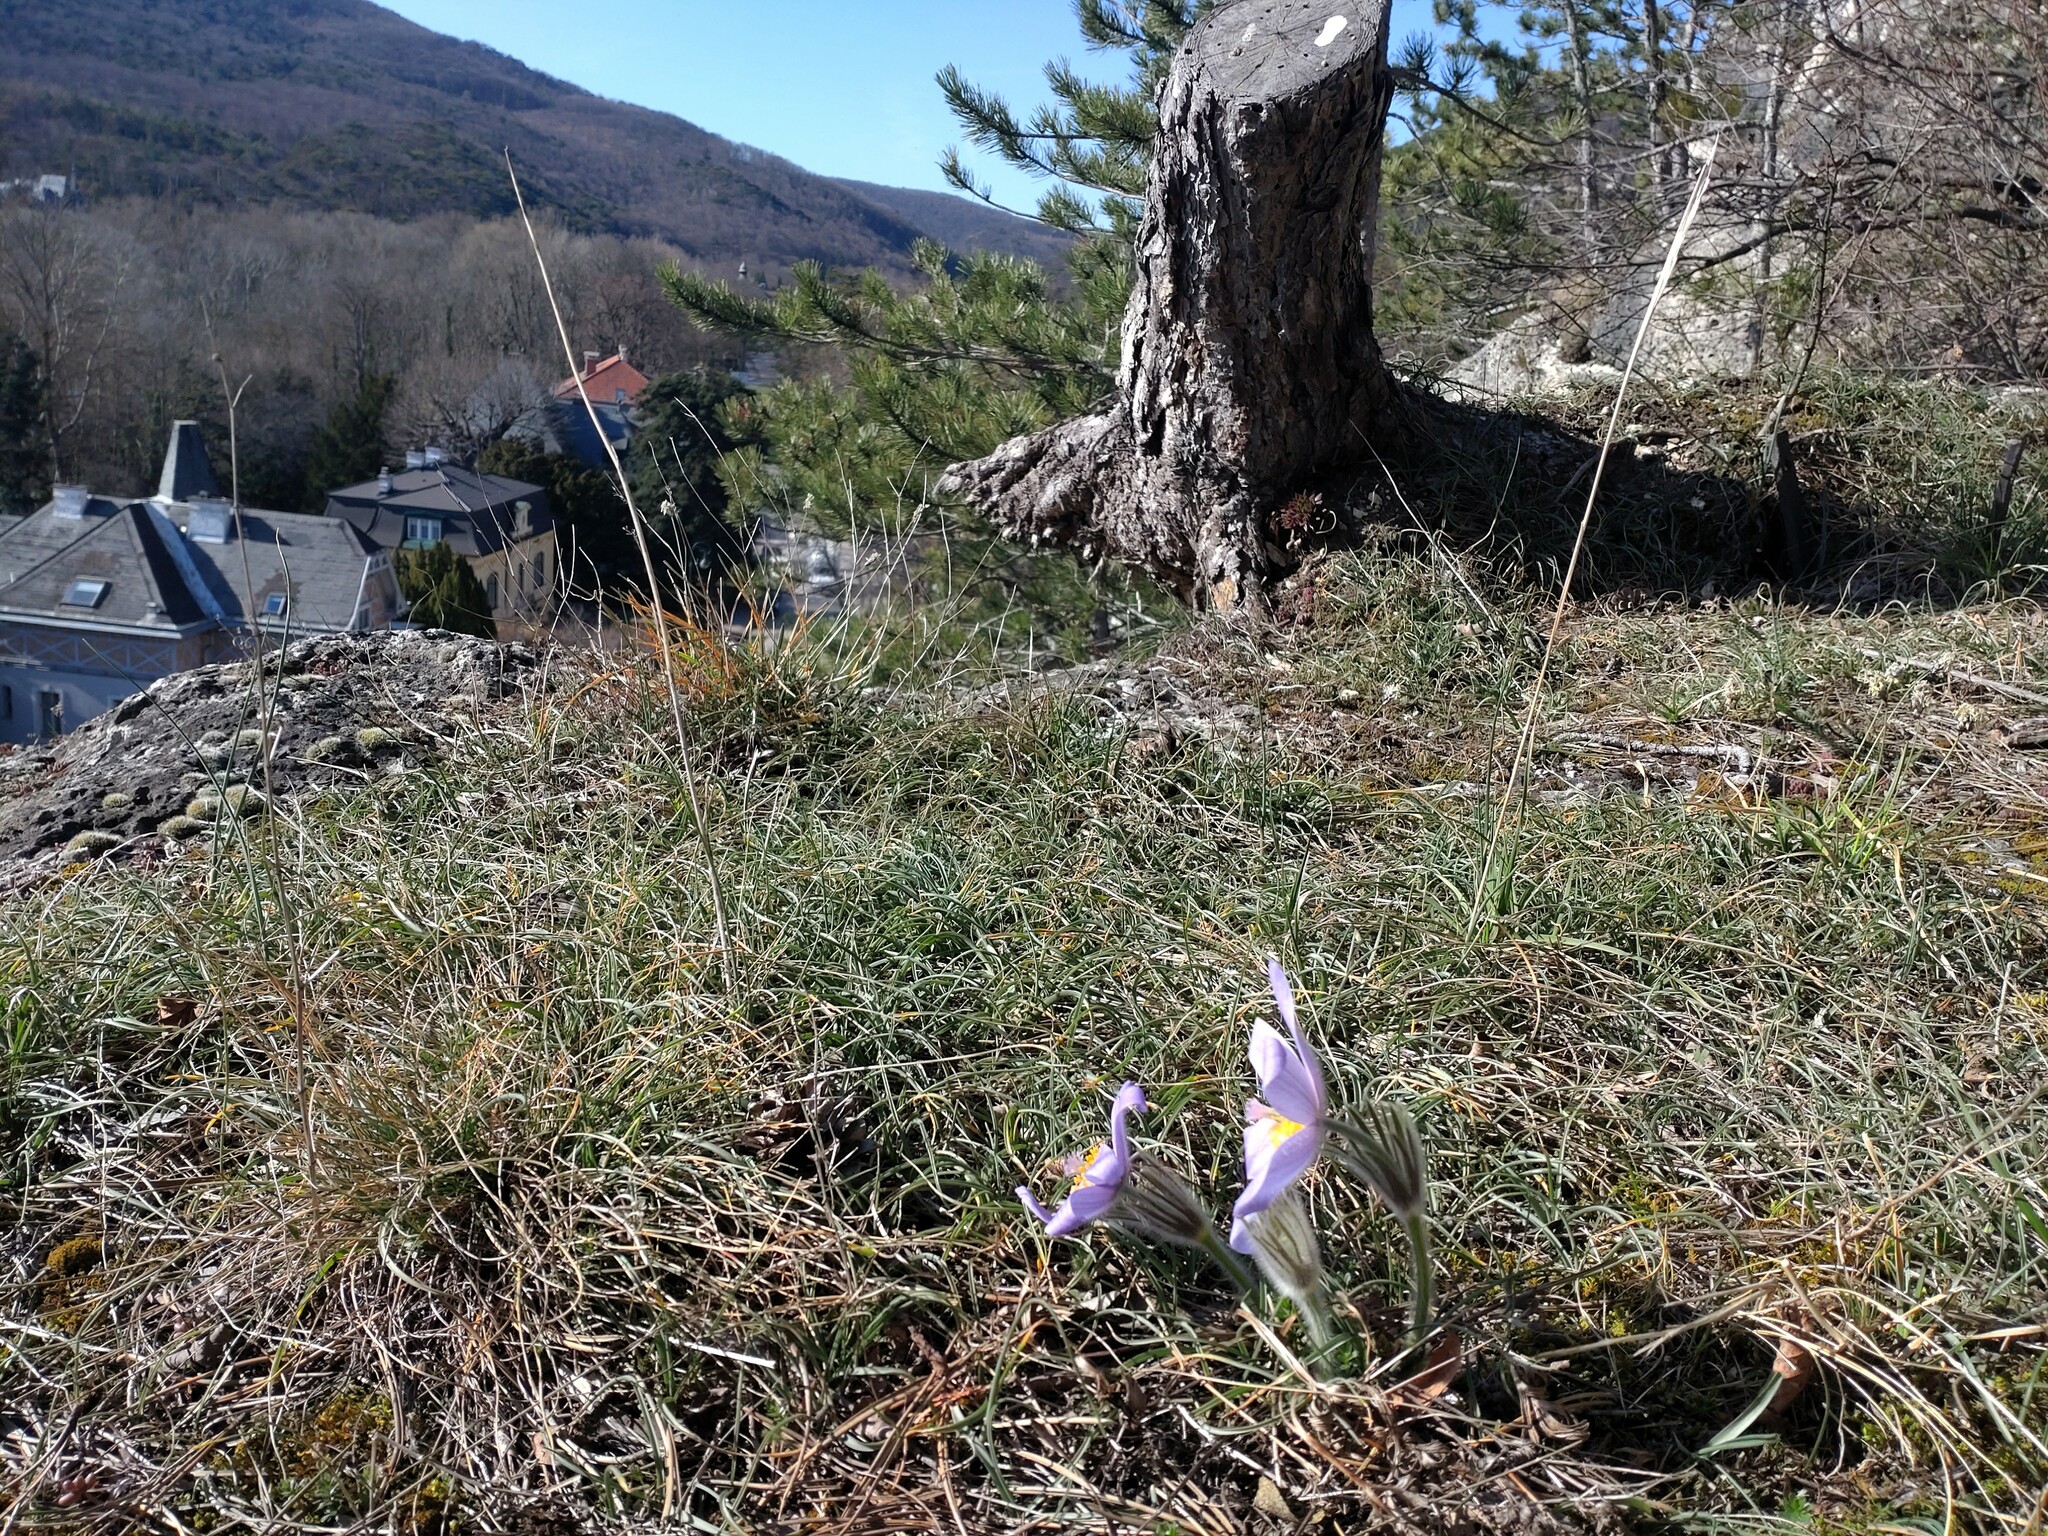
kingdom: Plantae
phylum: Tracheophyta
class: Magnoliopsida
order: Ranunculales
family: Ranunculaceae
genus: Pulsatilla
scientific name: Pulsatilla grandis
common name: Greater pasque flower
